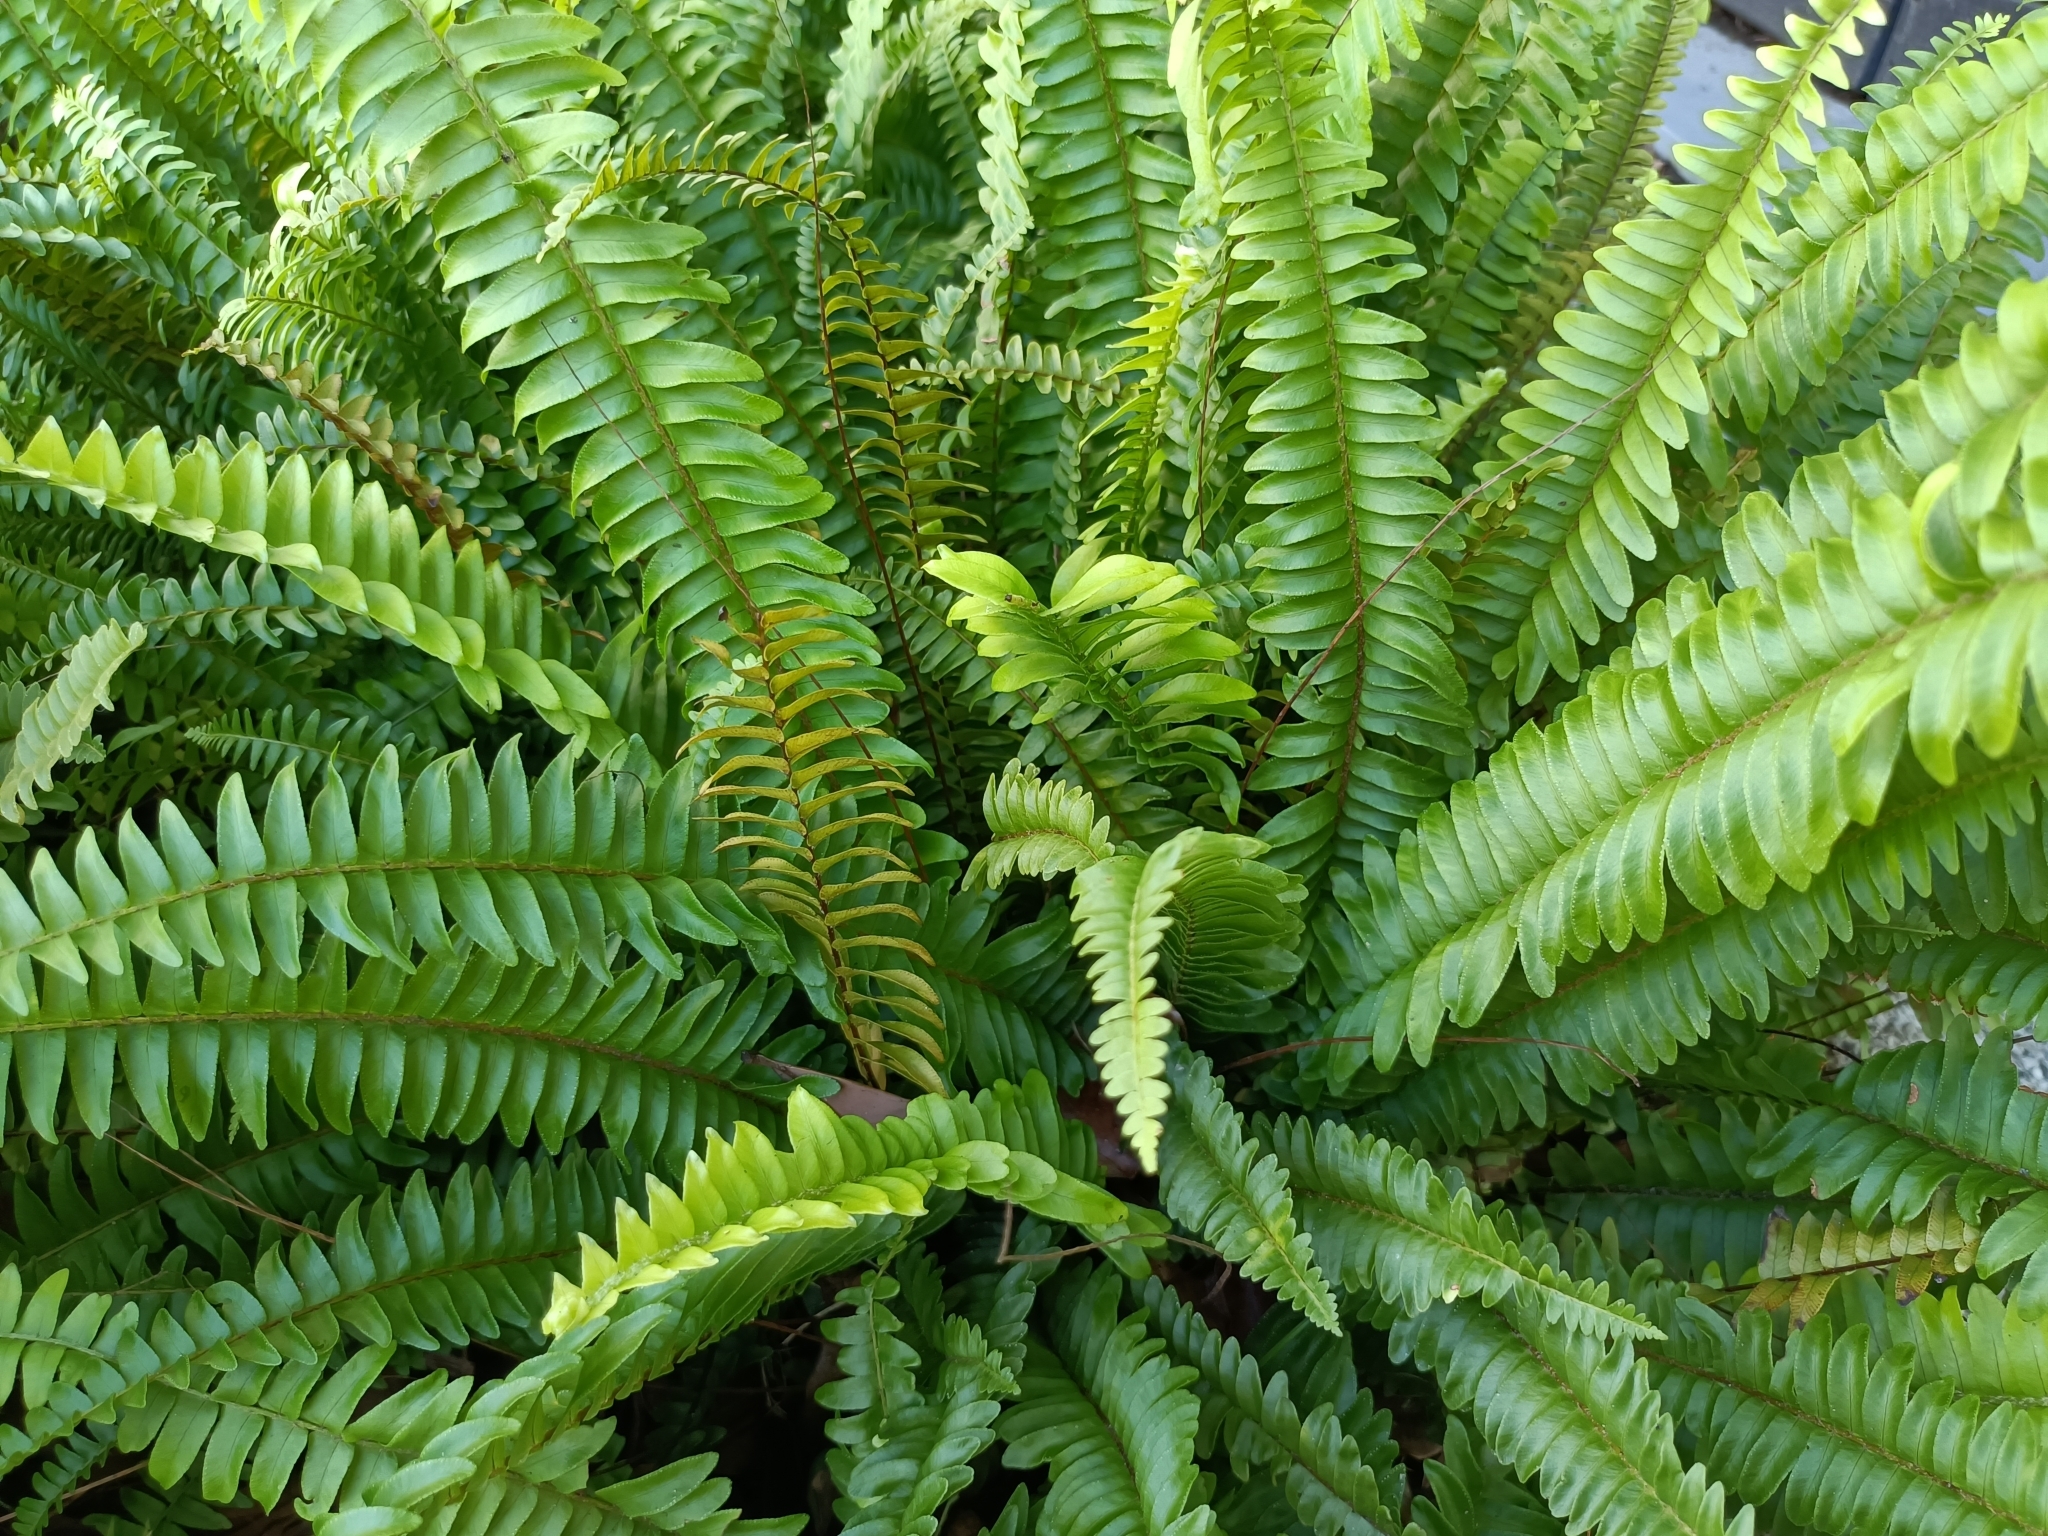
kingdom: Plantae
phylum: Tracheophyta
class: Polypodiopsida
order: Polypodiales
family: Nephrolepidaceae
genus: Nephrolepis
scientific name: Nephrolepis cordifolia
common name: Narrow swordfern
